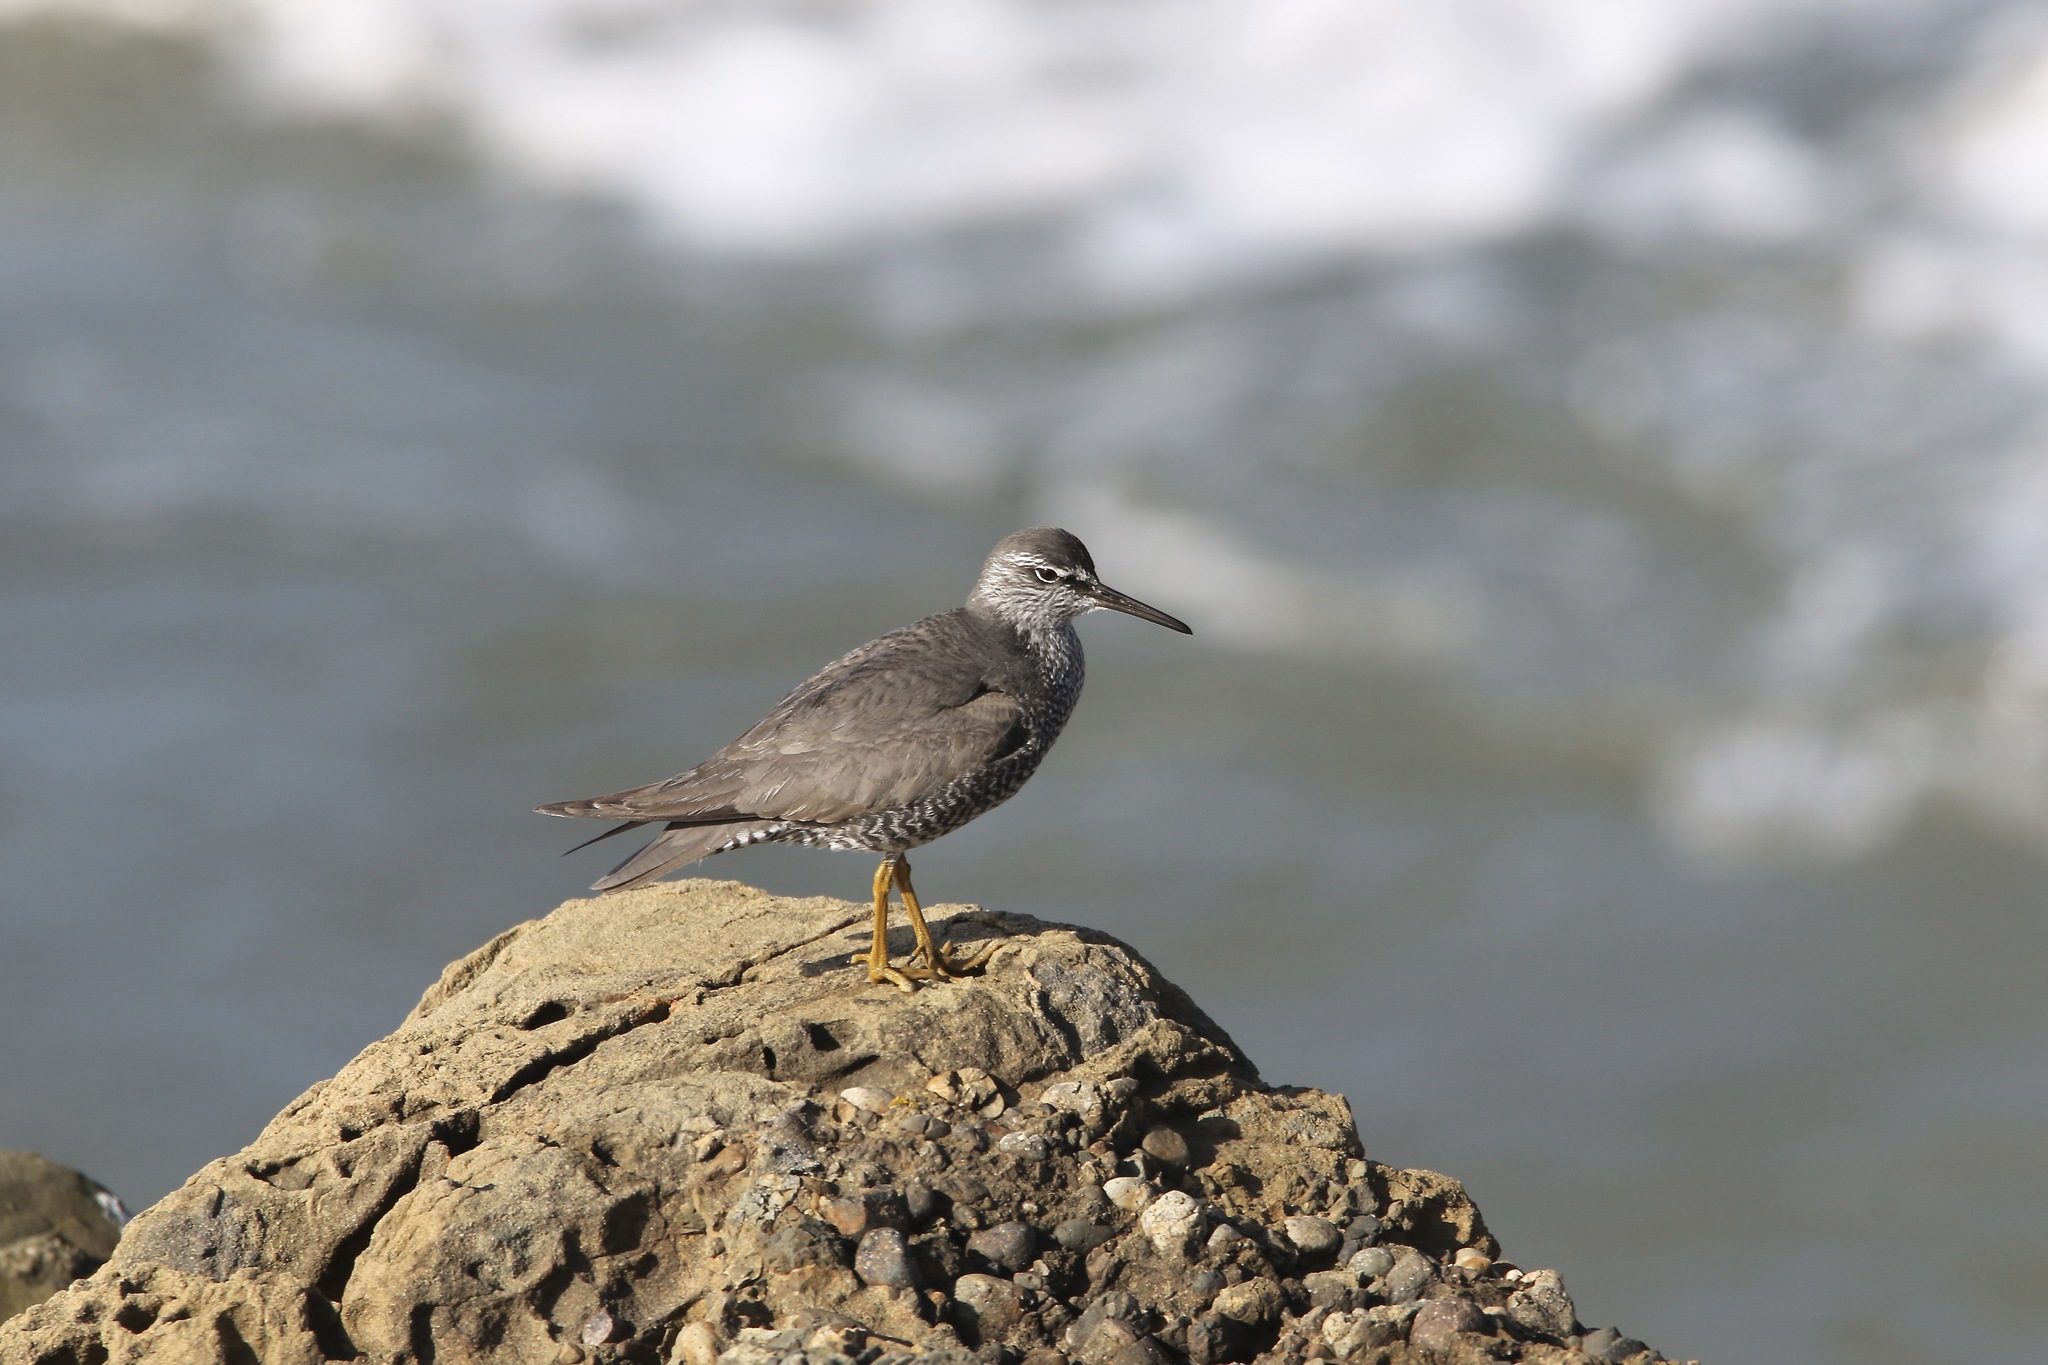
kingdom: Animalia
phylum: Chordata
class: Aves
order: Charadriiformes
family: Scolopacidae
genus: Tringa
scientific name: Tringa incana
